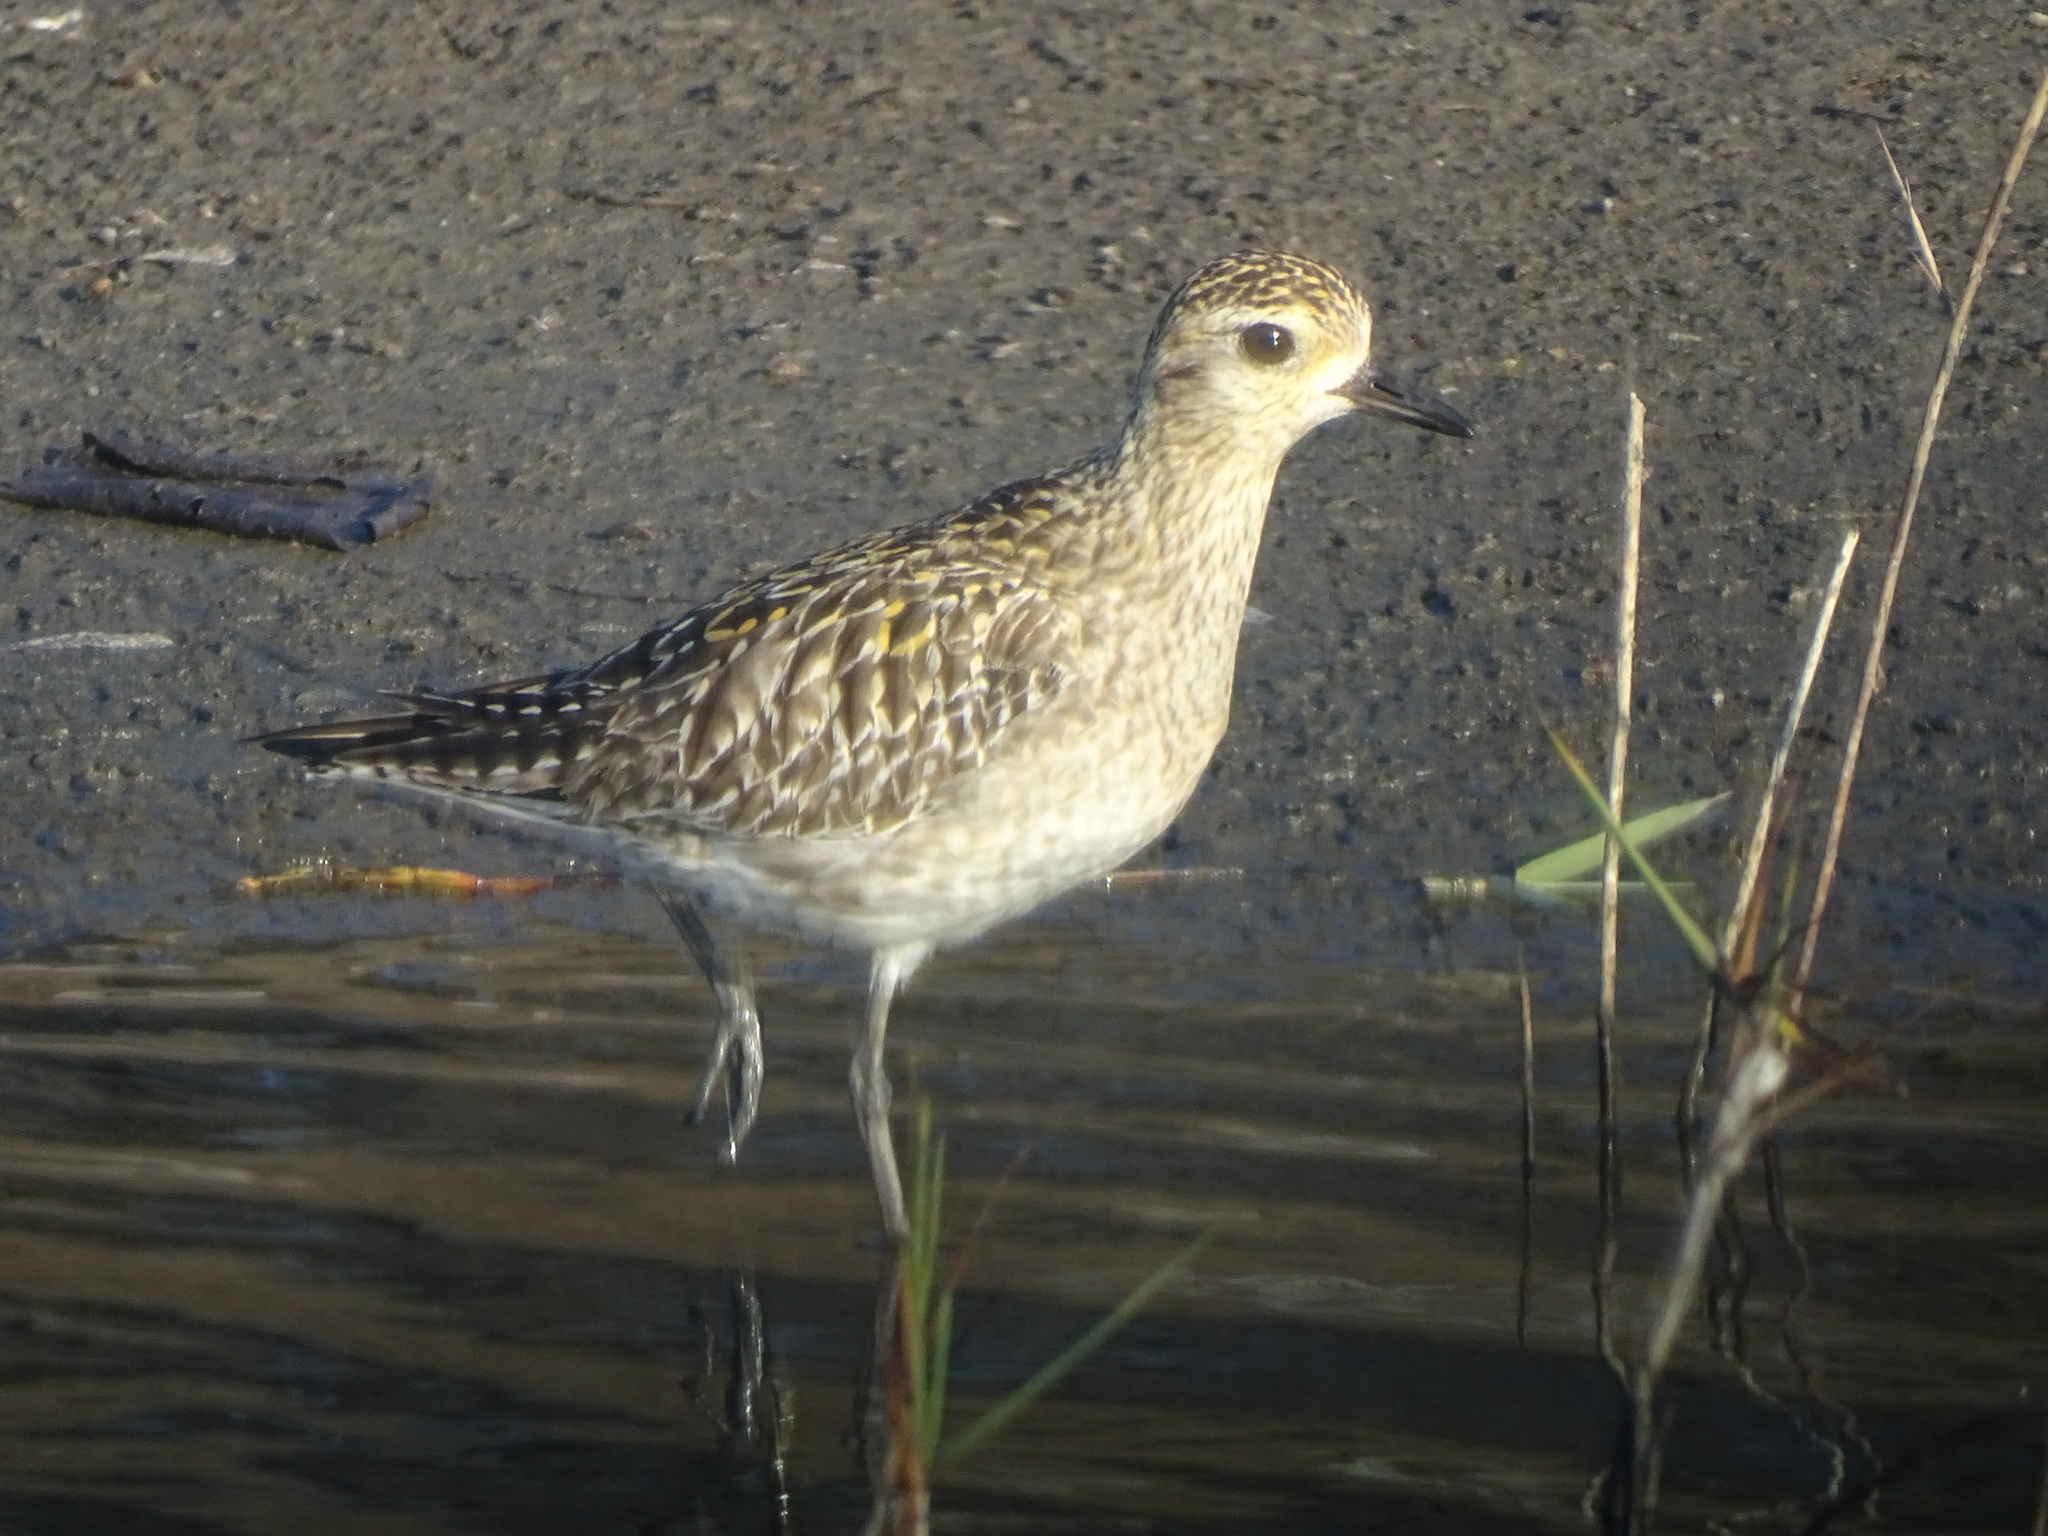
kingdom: Animalia
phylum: Chordata
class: Aves
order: Charadriiformes
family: Charadriidae
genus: Pluvialis
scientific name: Pluvialis fulva
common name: Pacific golden plover
